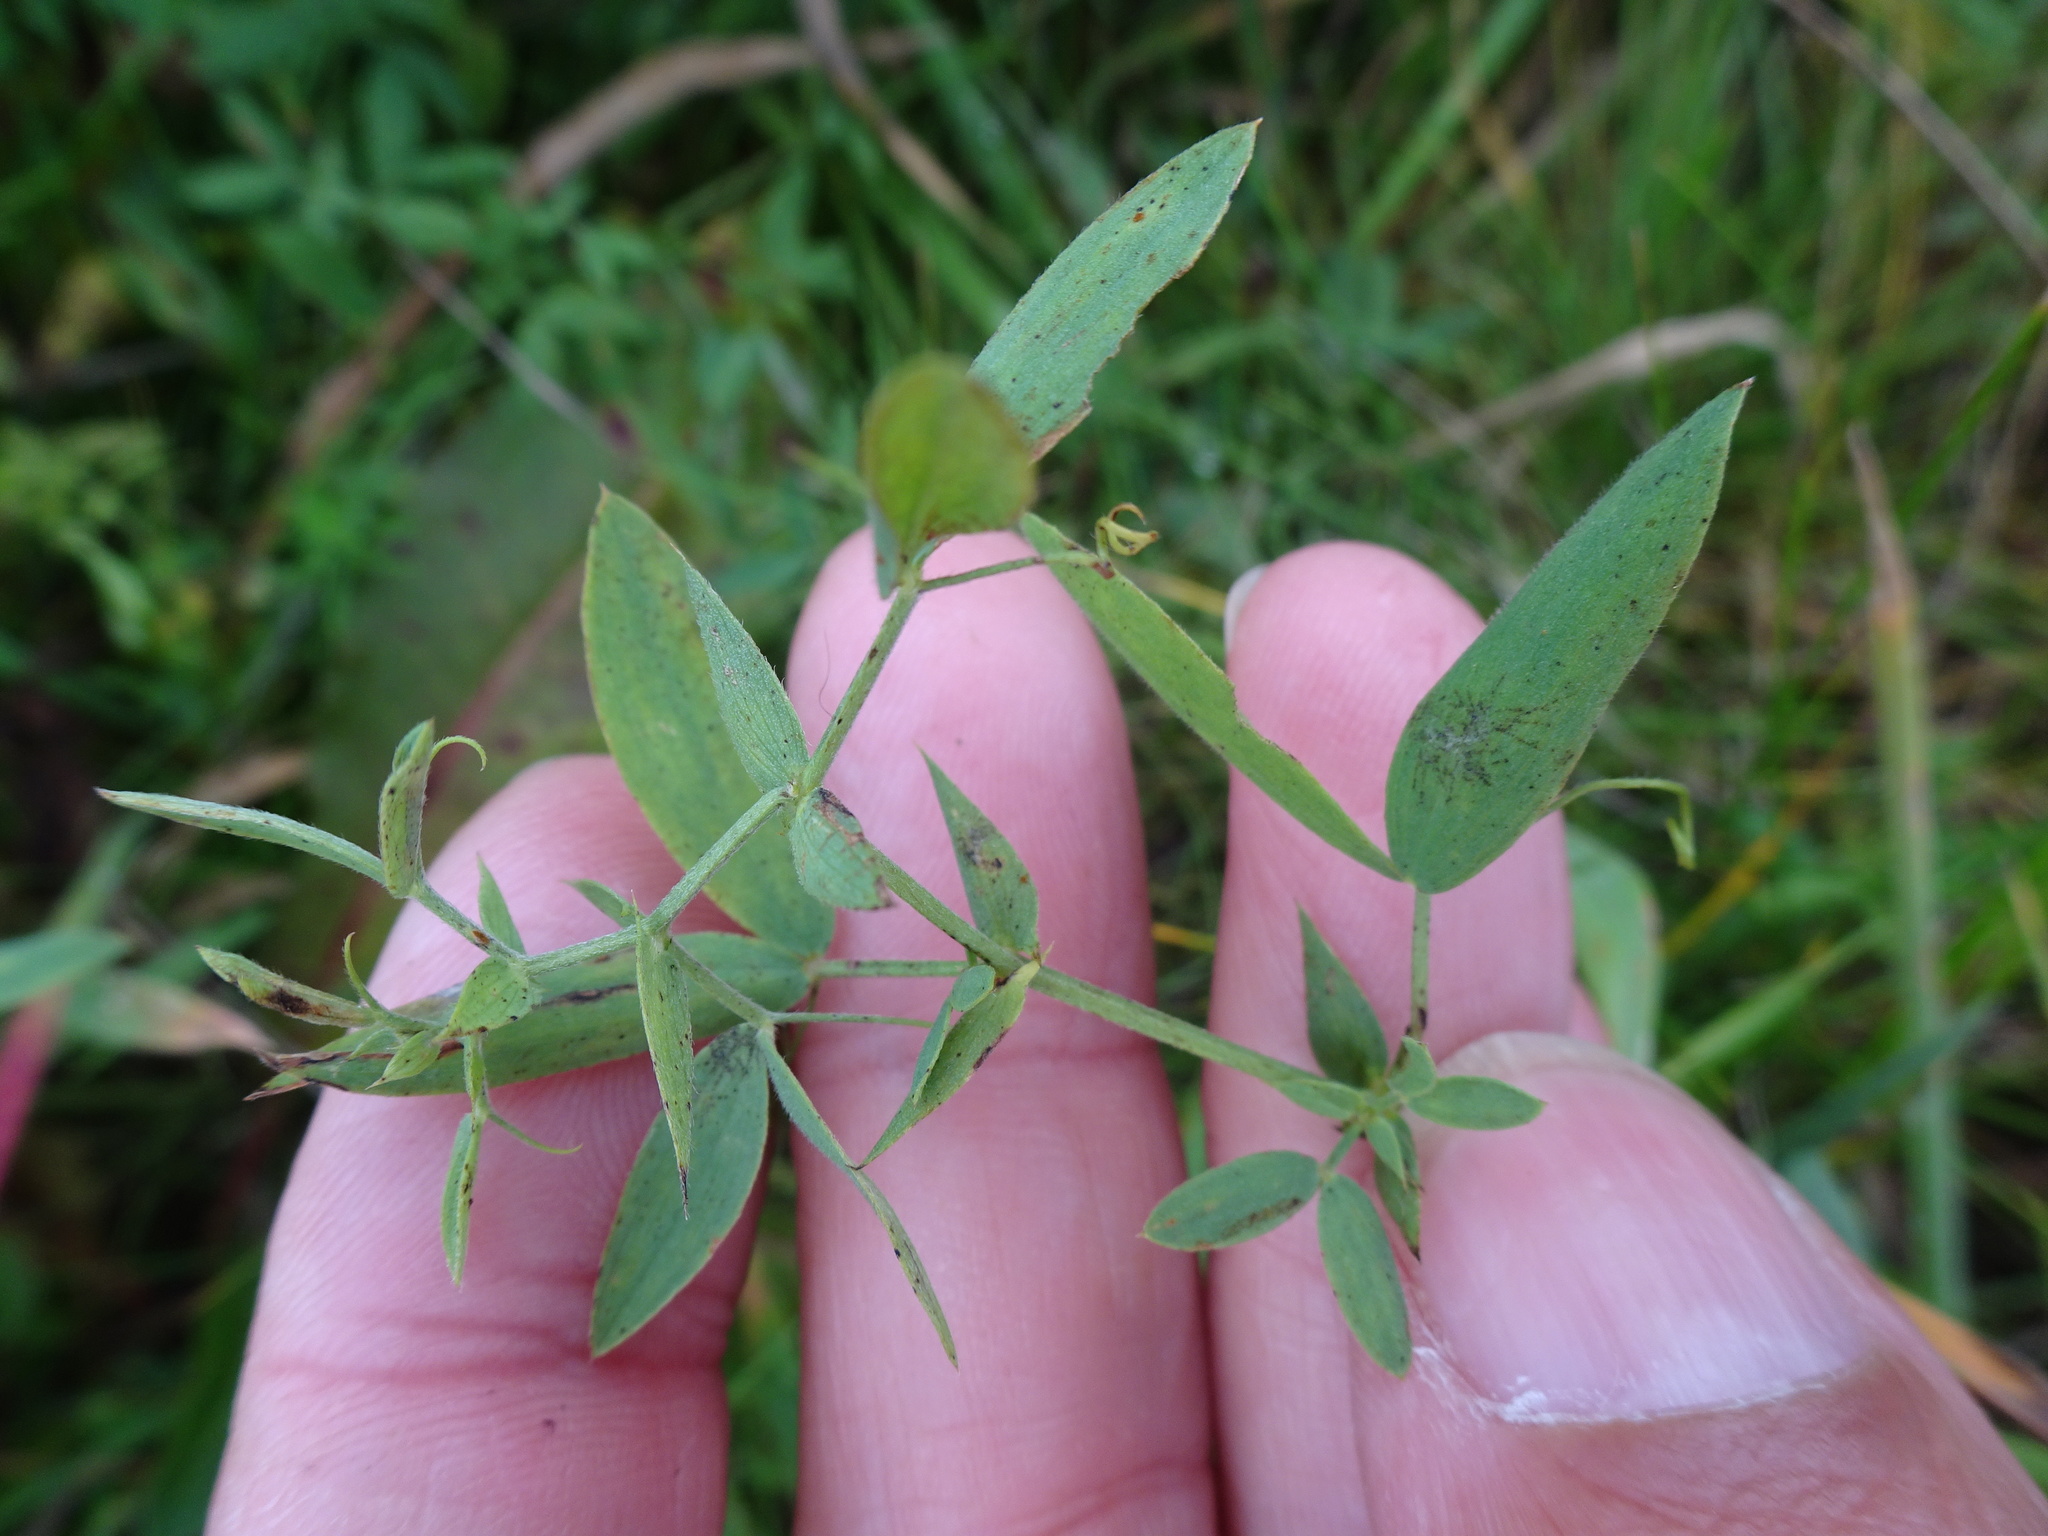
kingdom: Plantae
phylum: Tracheophyta
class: Magnoliopsida
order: Fabales
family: Fabaceae
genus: Lathyrus
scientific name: Lathyrus pratensis
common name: Meadow vetchling
